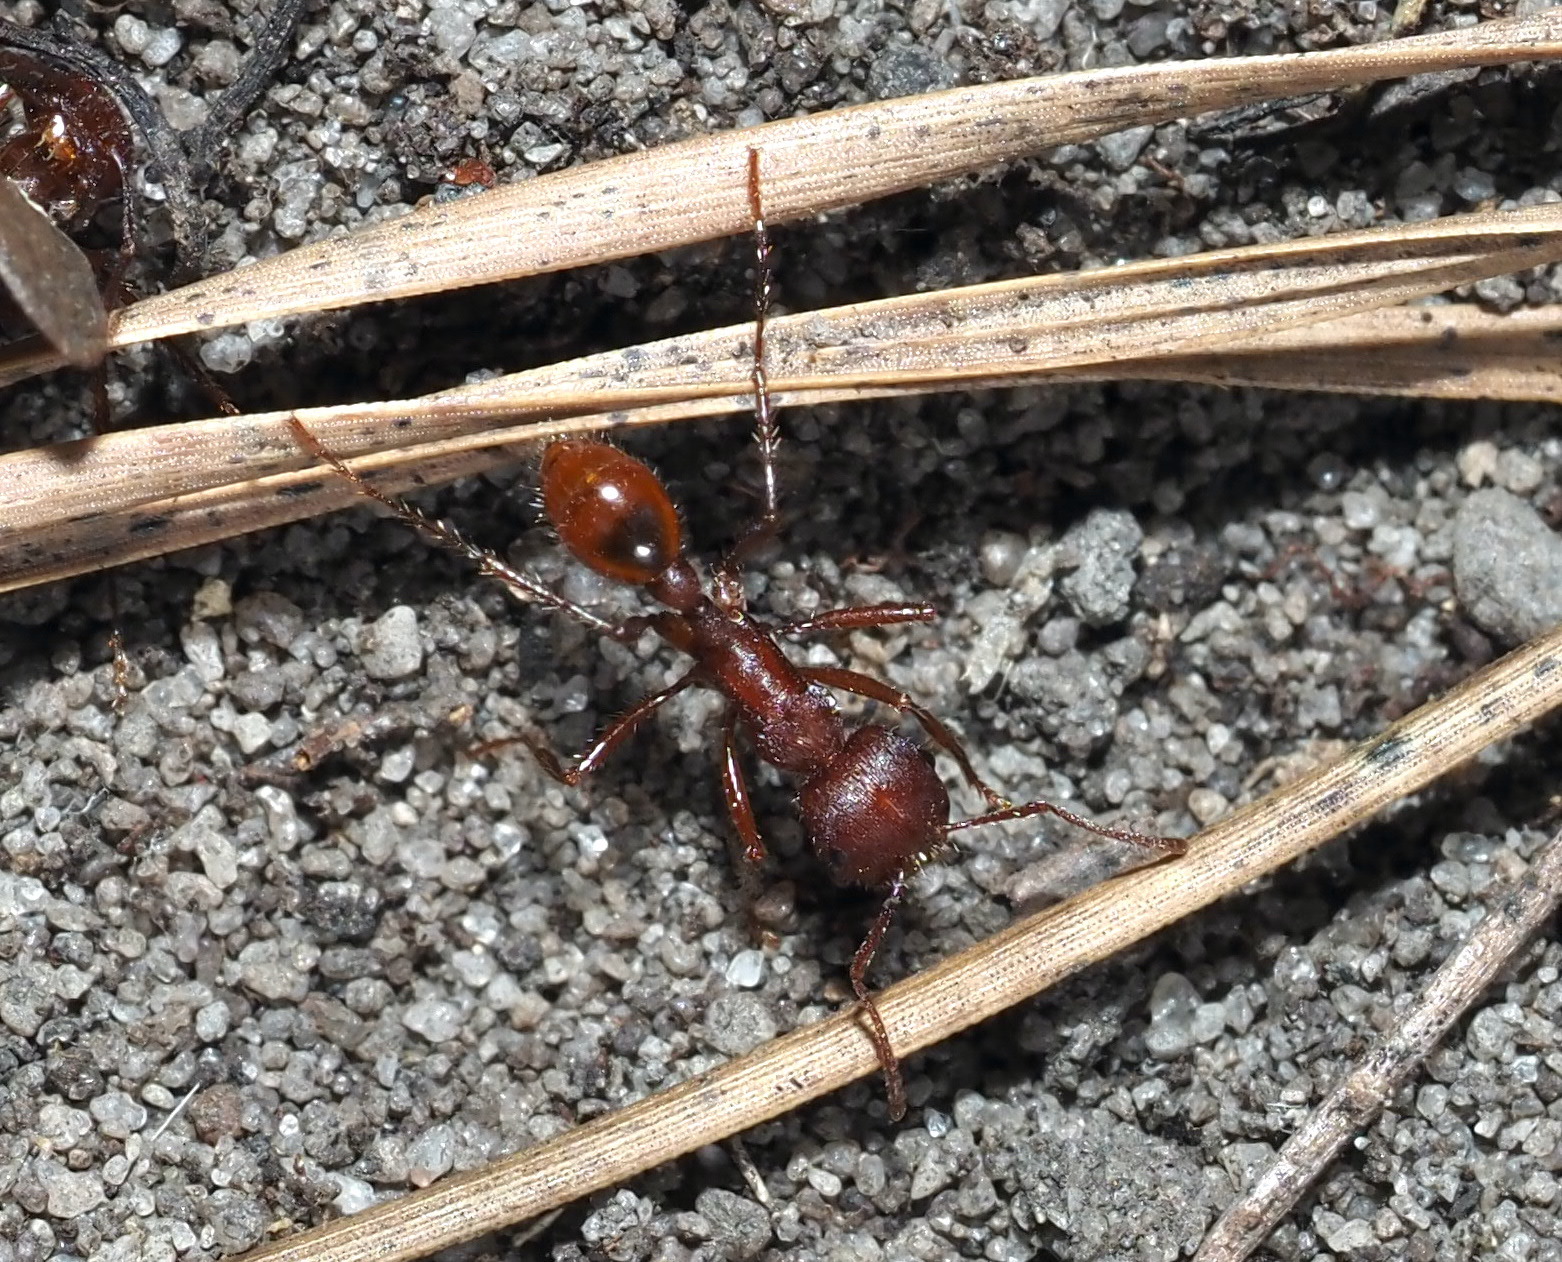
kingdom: Animalia
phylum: Arthropoda
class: Insecta
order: Hymenoptera
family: Formicidae
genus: Pogonomyrmex
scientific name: Pogonomyrmex badius
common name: Florida harvester ant
